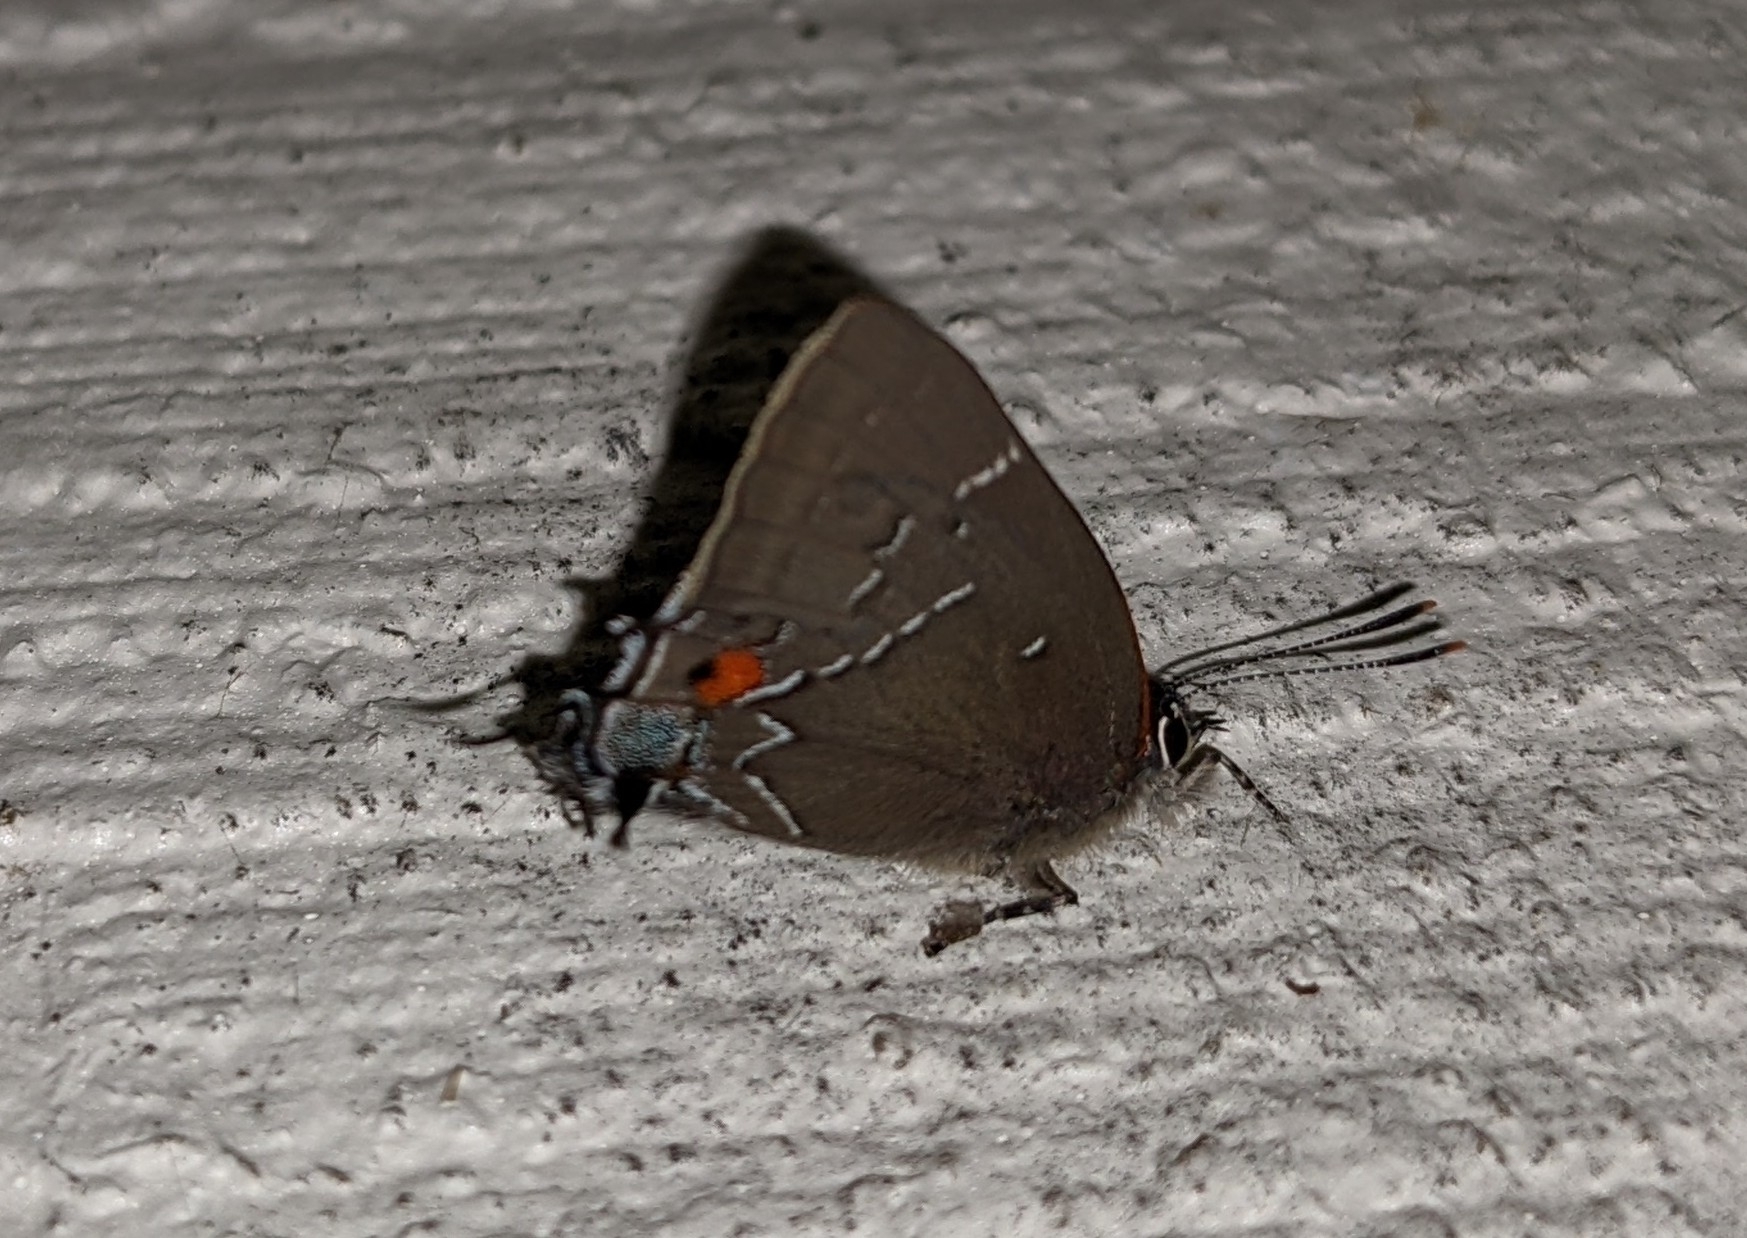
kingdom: Animalia
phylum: Arthropoda
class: Insecta
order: Lepidoptera
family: Lycaenidae
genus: Parrhasius
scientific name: Parrhasius m-album
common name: White m hairstreak
